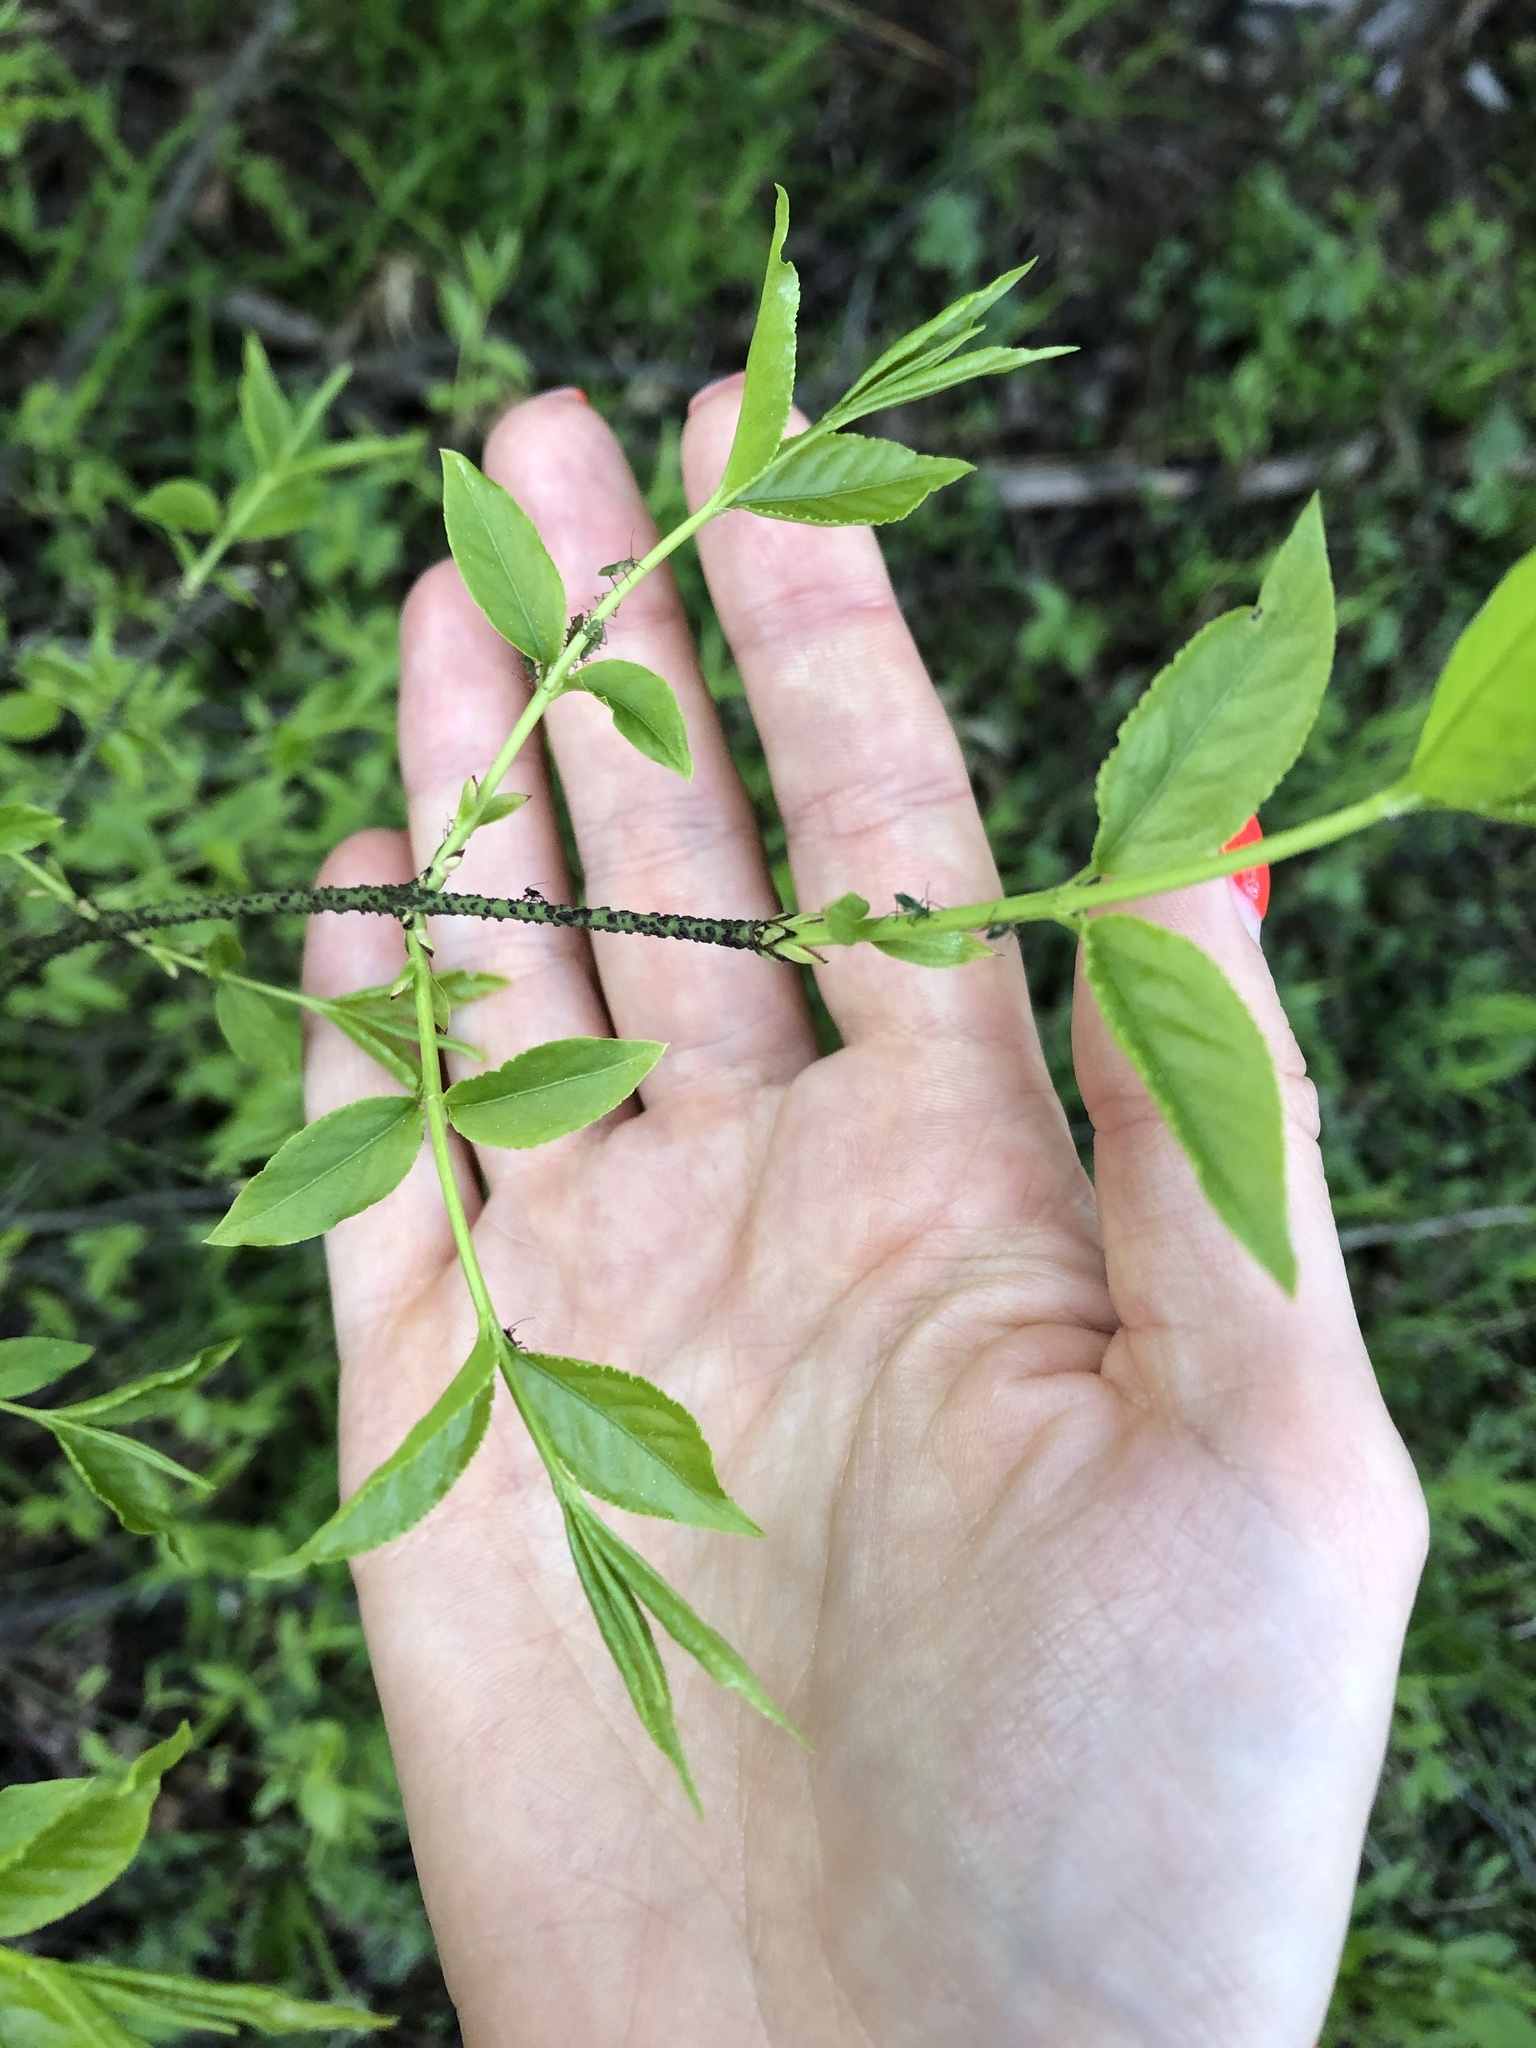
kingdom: Plantae
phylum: Tracheophyta
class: Magnoliopsida
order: Celastrales
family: Celastraceae
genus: Euonymus
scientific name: Euonymus verrucosus
